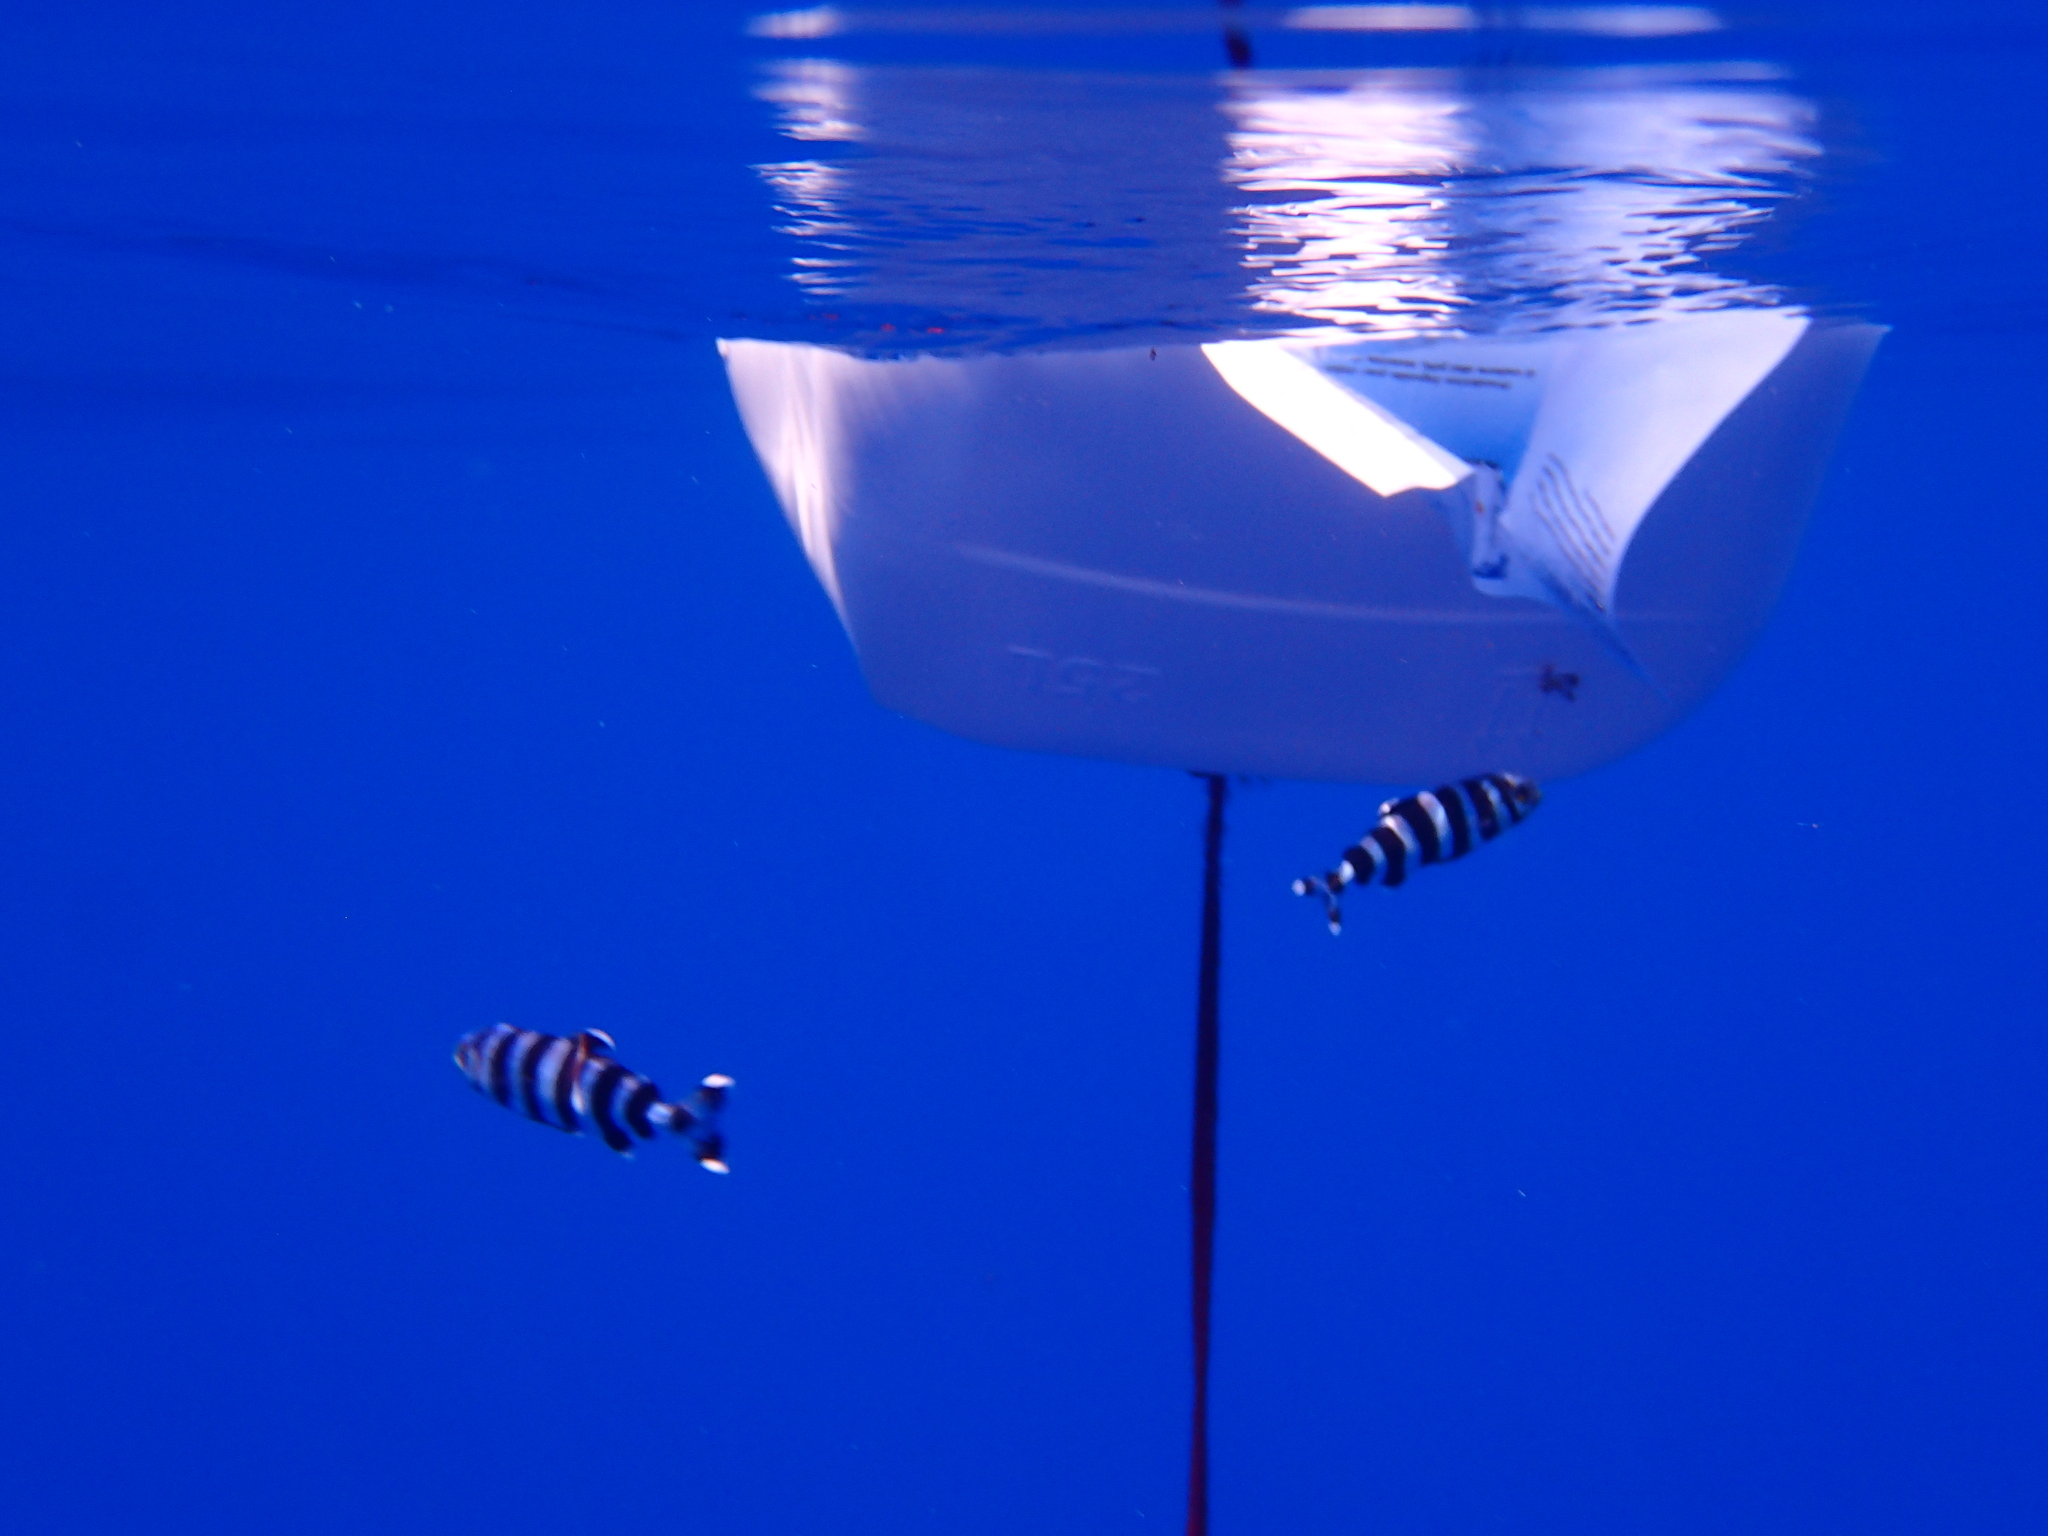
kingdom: Animalia
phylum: Chordata
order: Perciformes
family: Carangidae
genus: Naucrates
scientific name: Naucrates ductor
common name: Pilotfish
